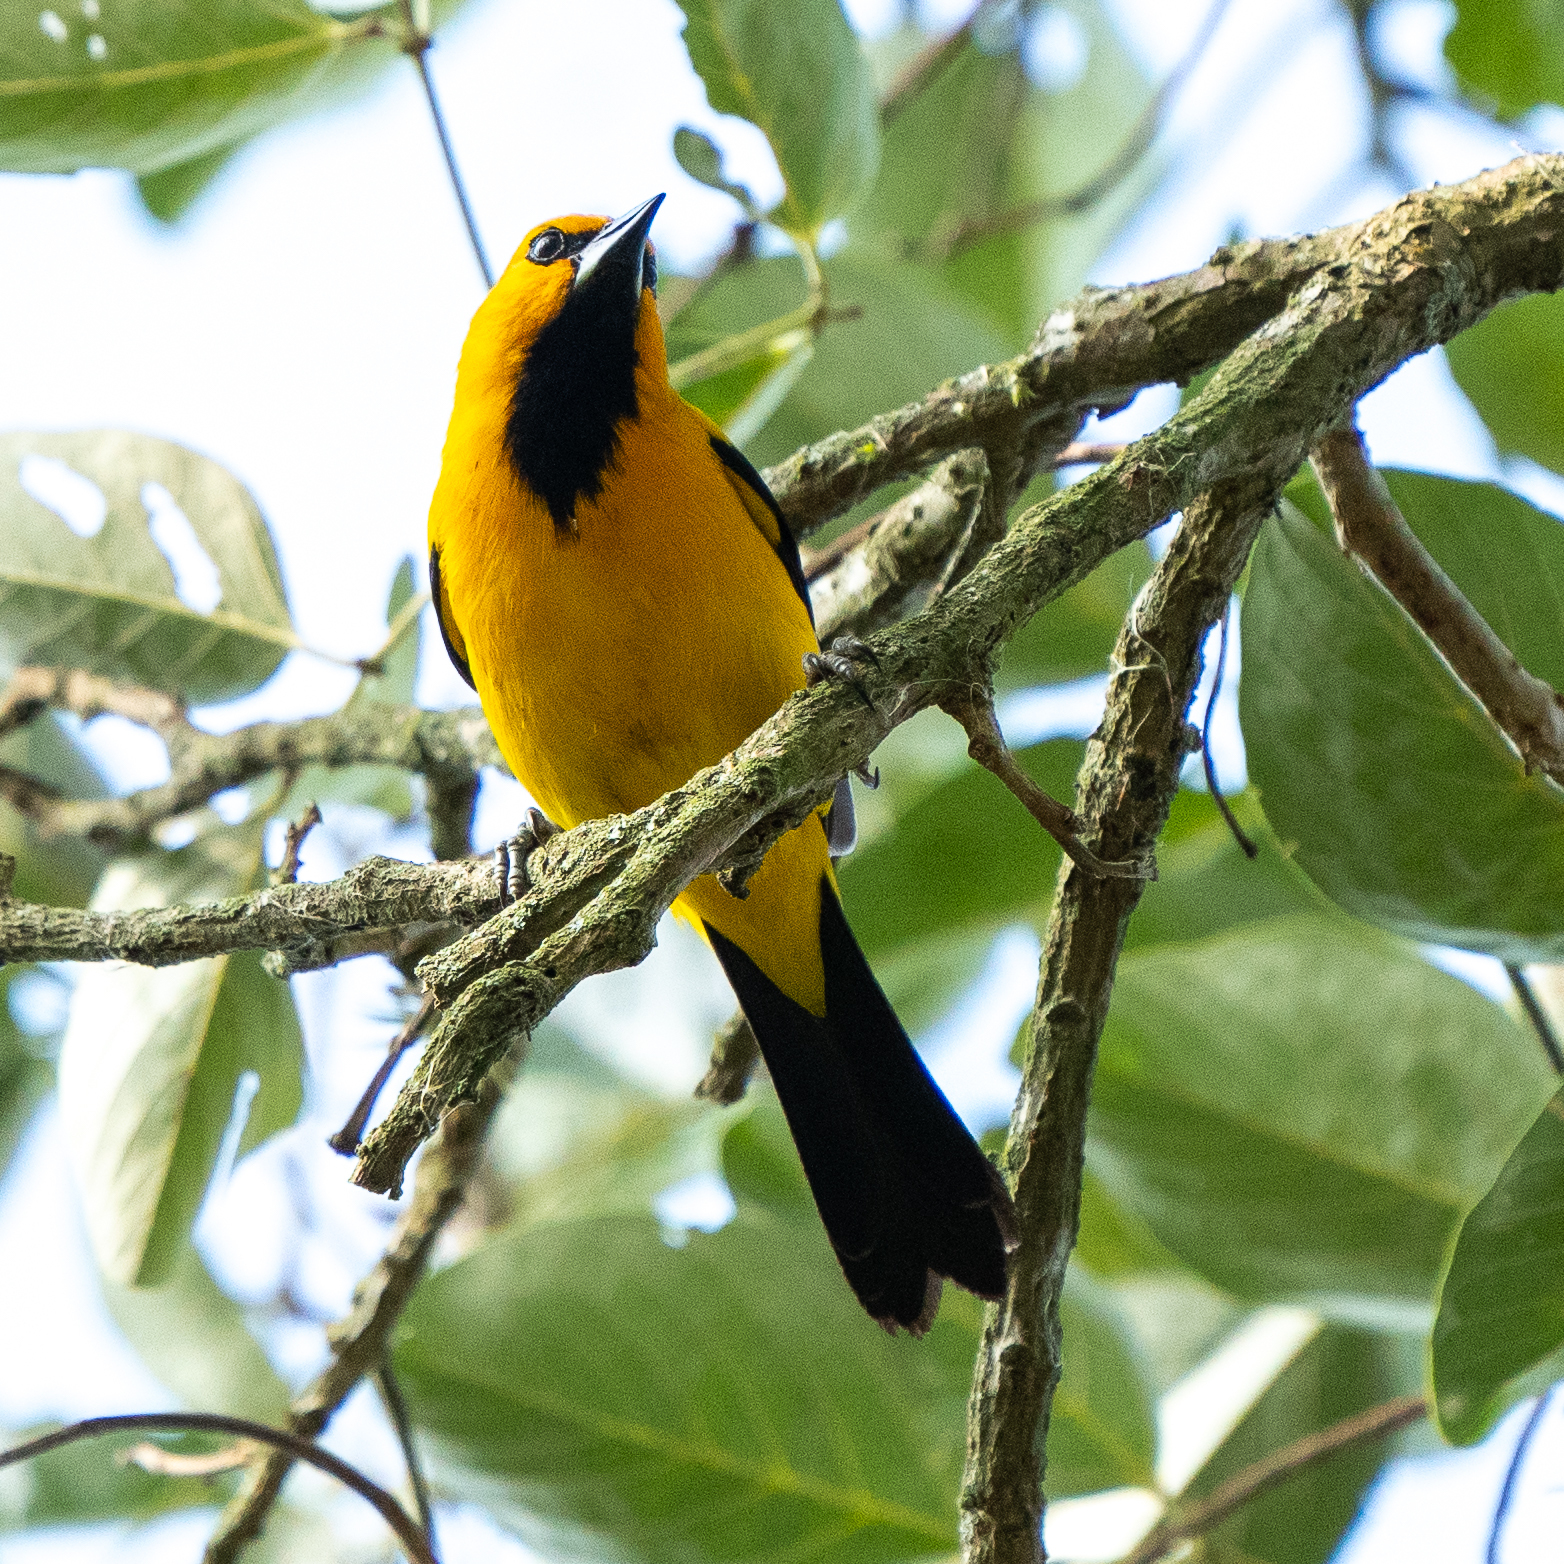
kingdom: Animalia
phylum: Chordata
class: Aves
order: Passeriformes
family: Icteridae
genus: Icterus
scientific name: Icterus nigrogularis
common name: Yellow oriole
